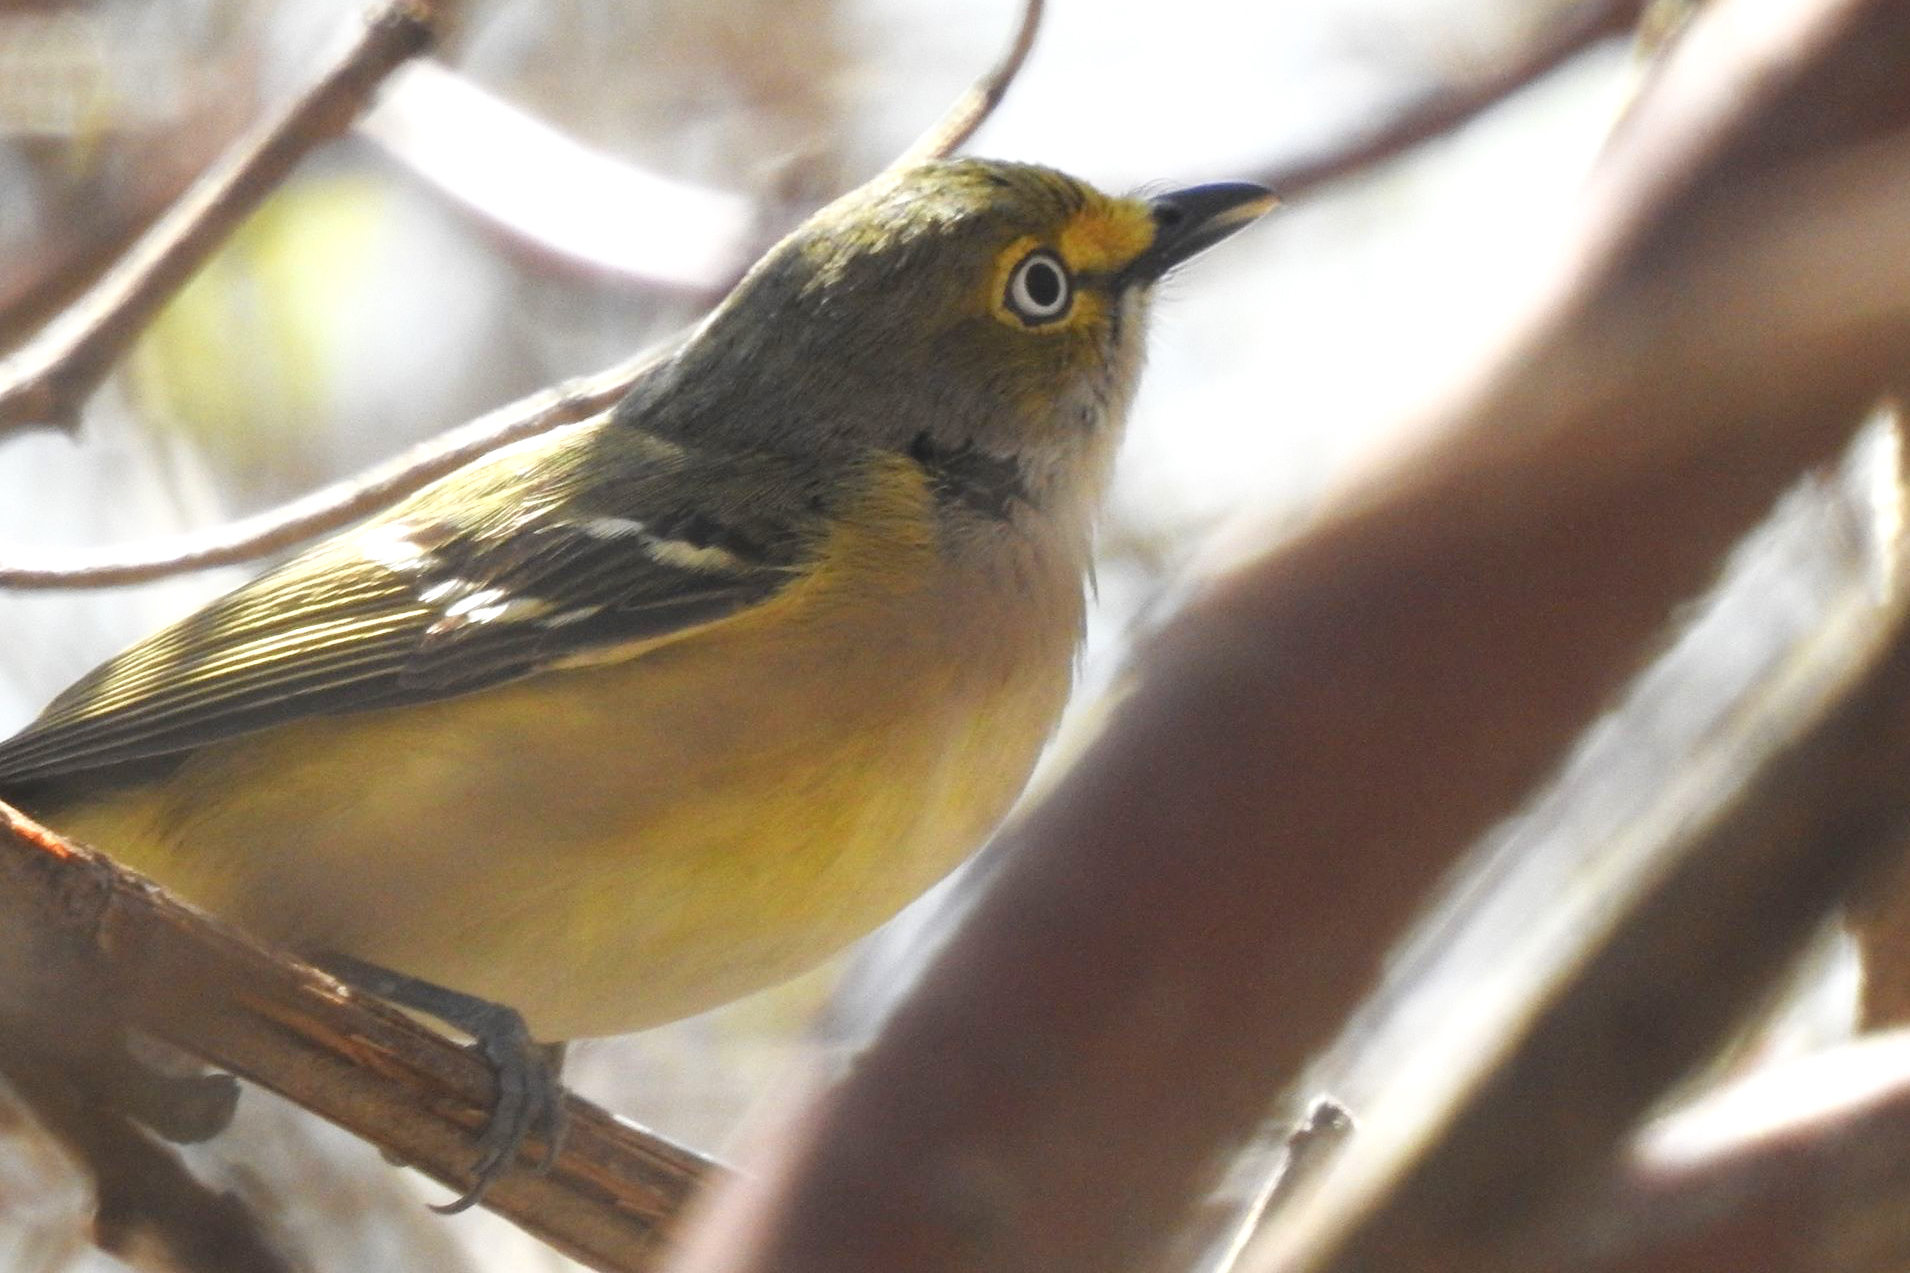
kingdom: Animalia
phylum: Chordata
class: Aves
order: Passeriformes
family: Vireonidae
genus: Vireo
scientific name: Vireo griseus
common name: White-eyed vireo
